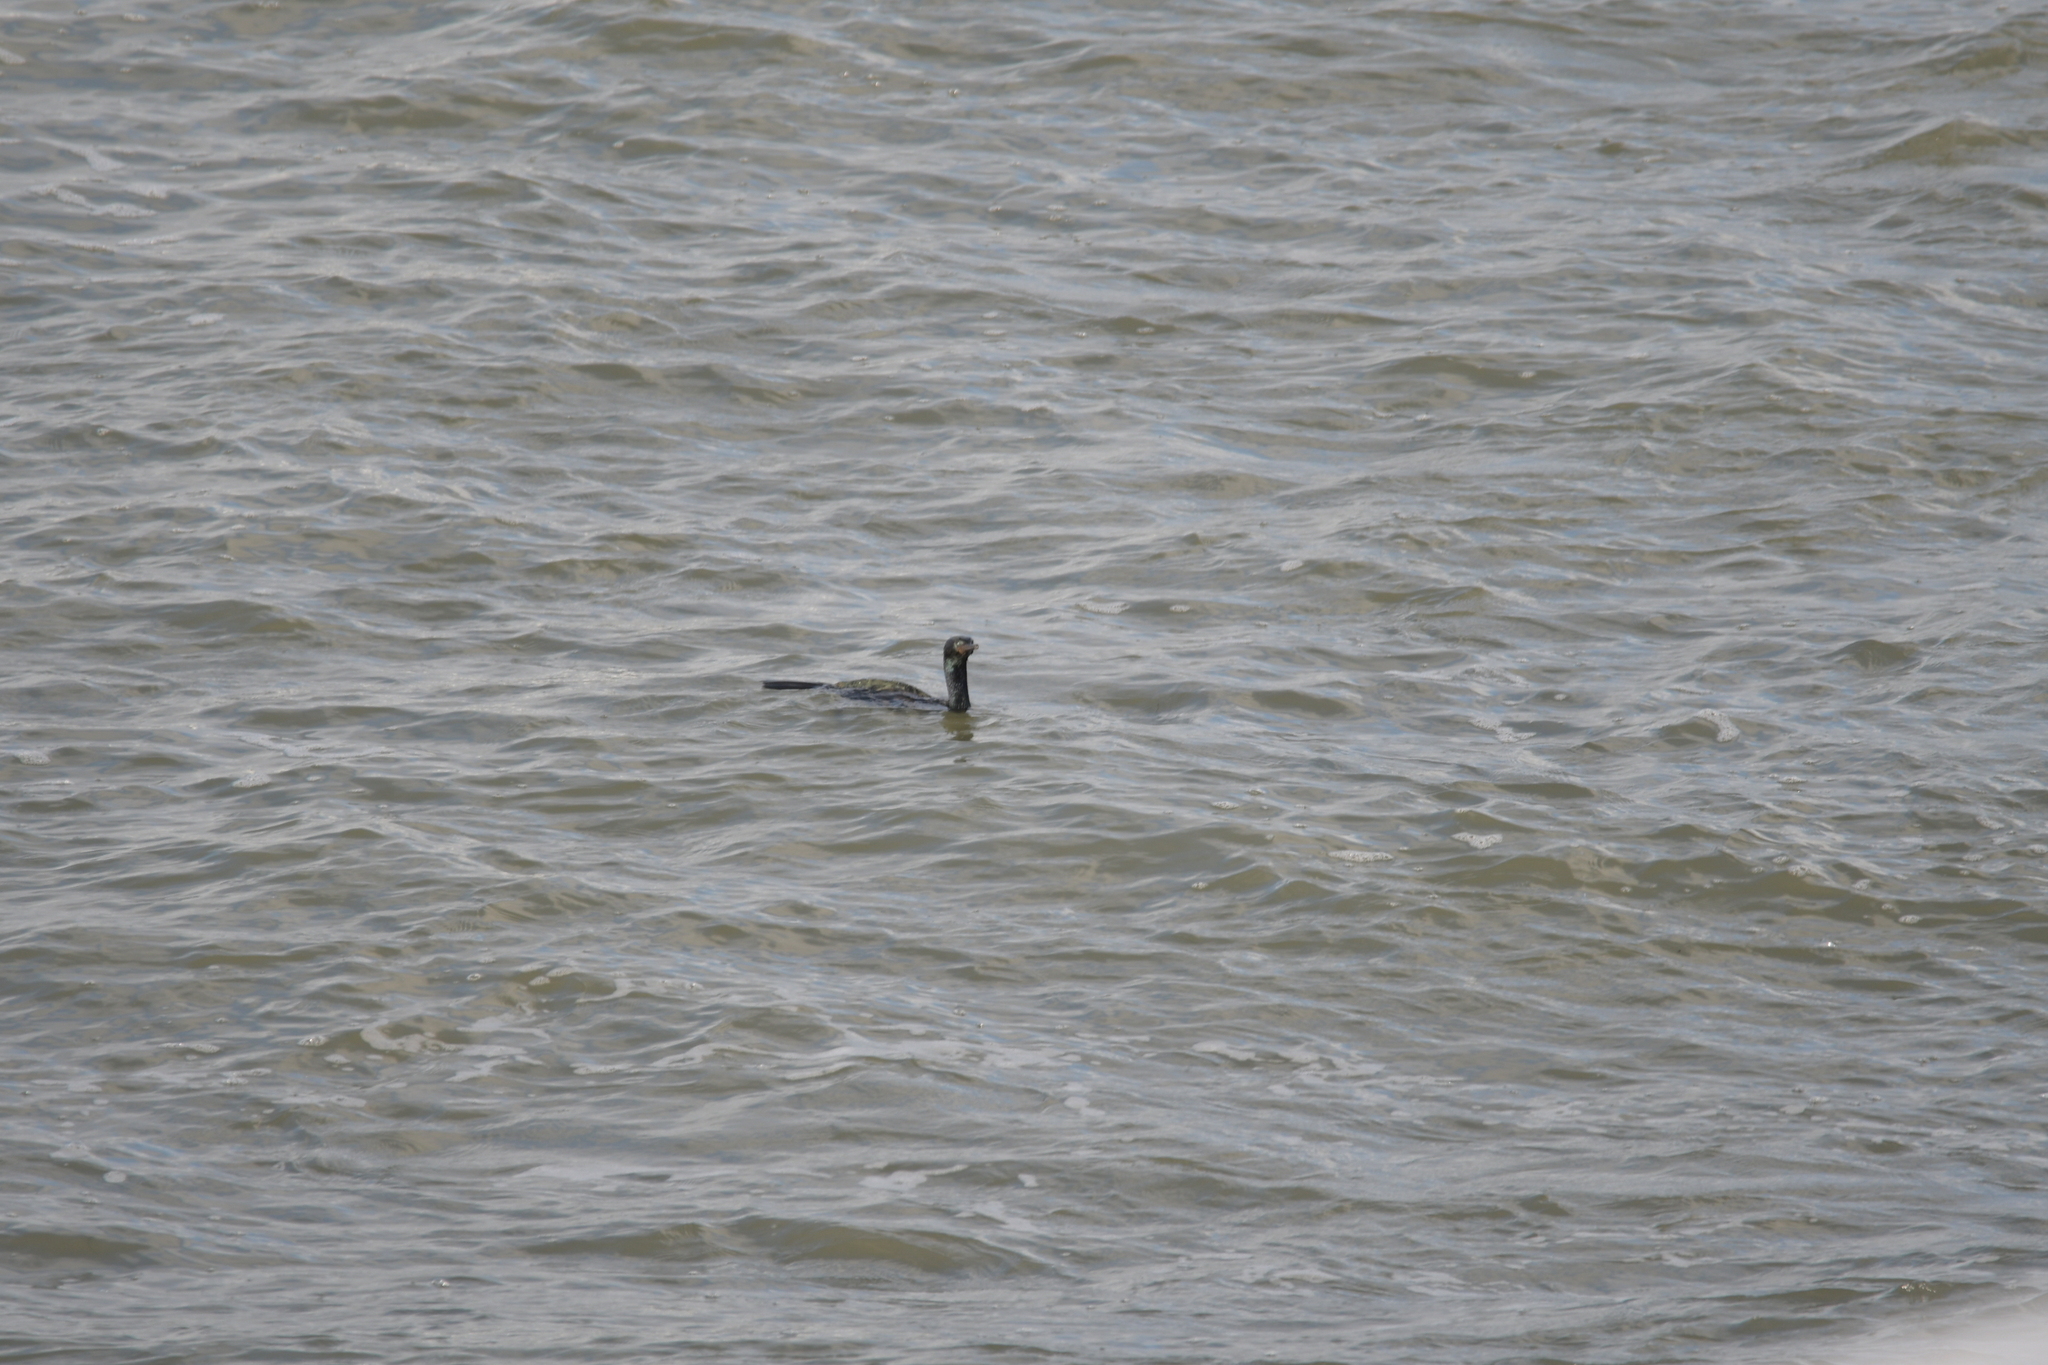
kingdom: Animalia
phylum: Chordata
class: Aves
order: Suliformes
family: Phalacrocoracidae
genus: Phalacrocorax
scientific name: Phalacrocorax pelagicus
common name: Pelagic cormorant
